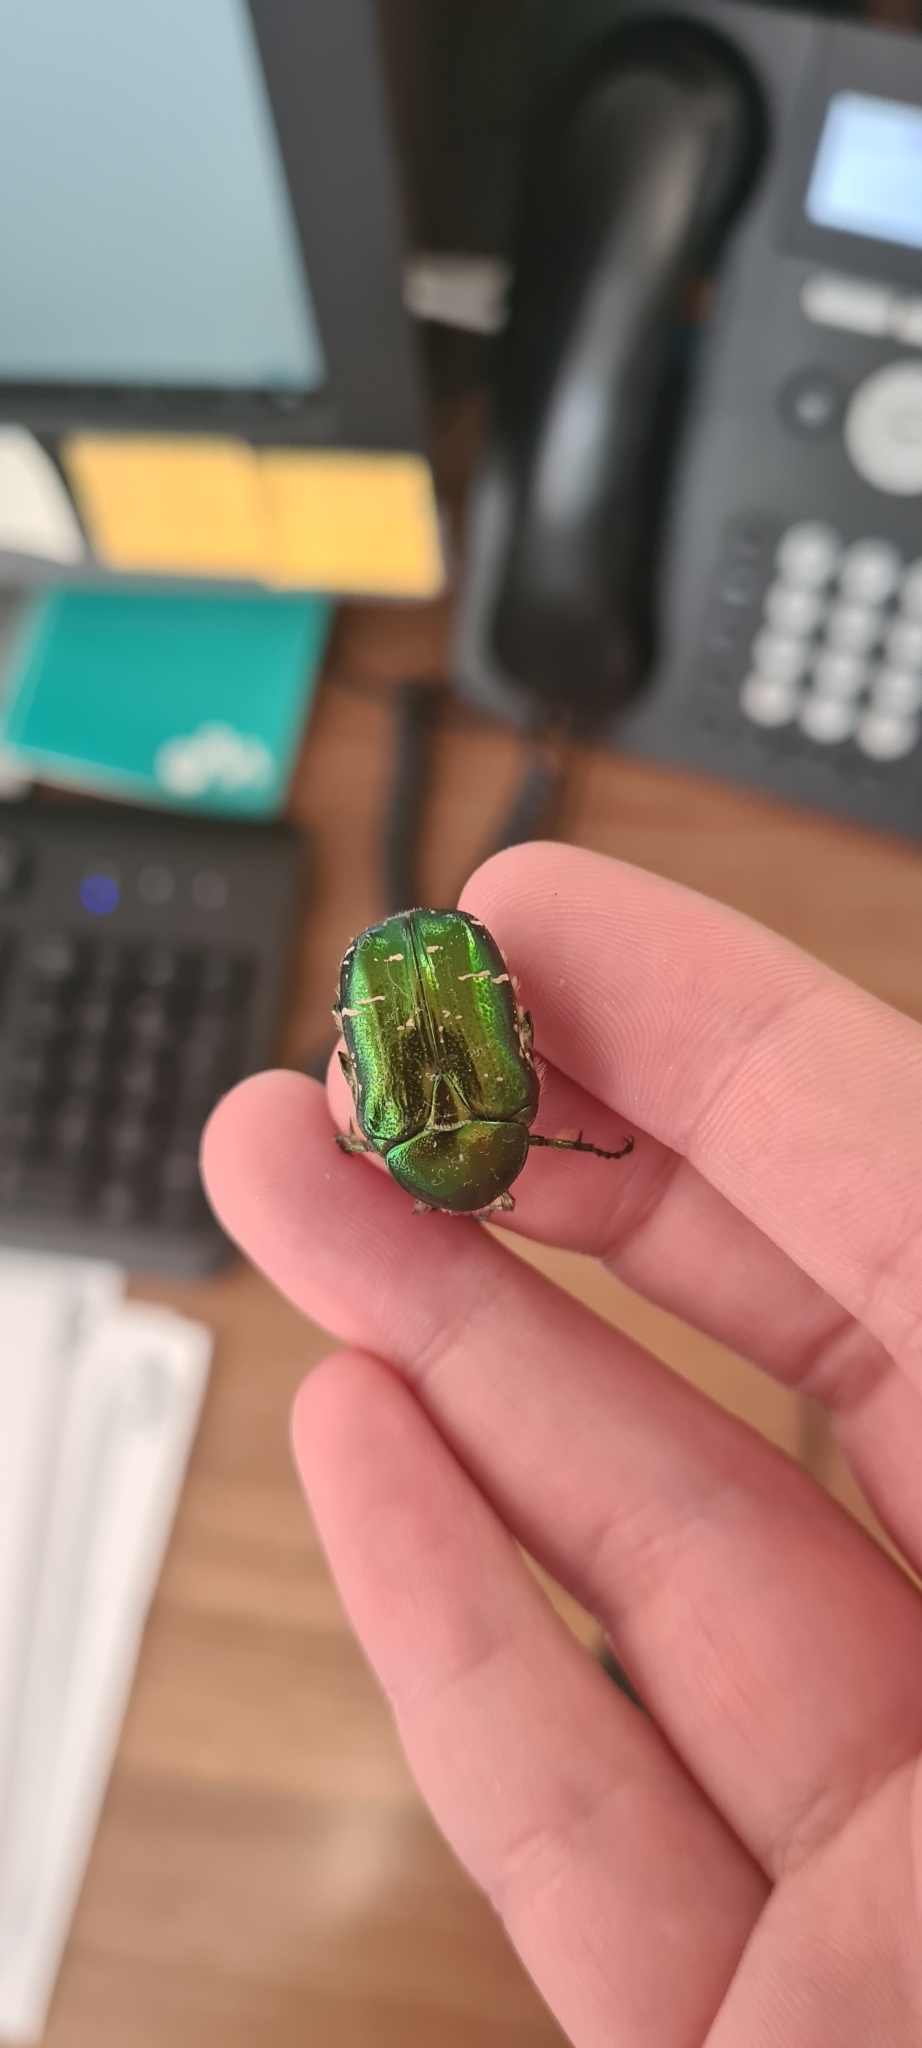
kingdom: Animalia
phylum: Arthropoda
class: Insecta
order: Coleoptera
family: Scarabaeidae
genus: Cetonia
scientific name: Cetonia aurata
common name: Rose chafer
